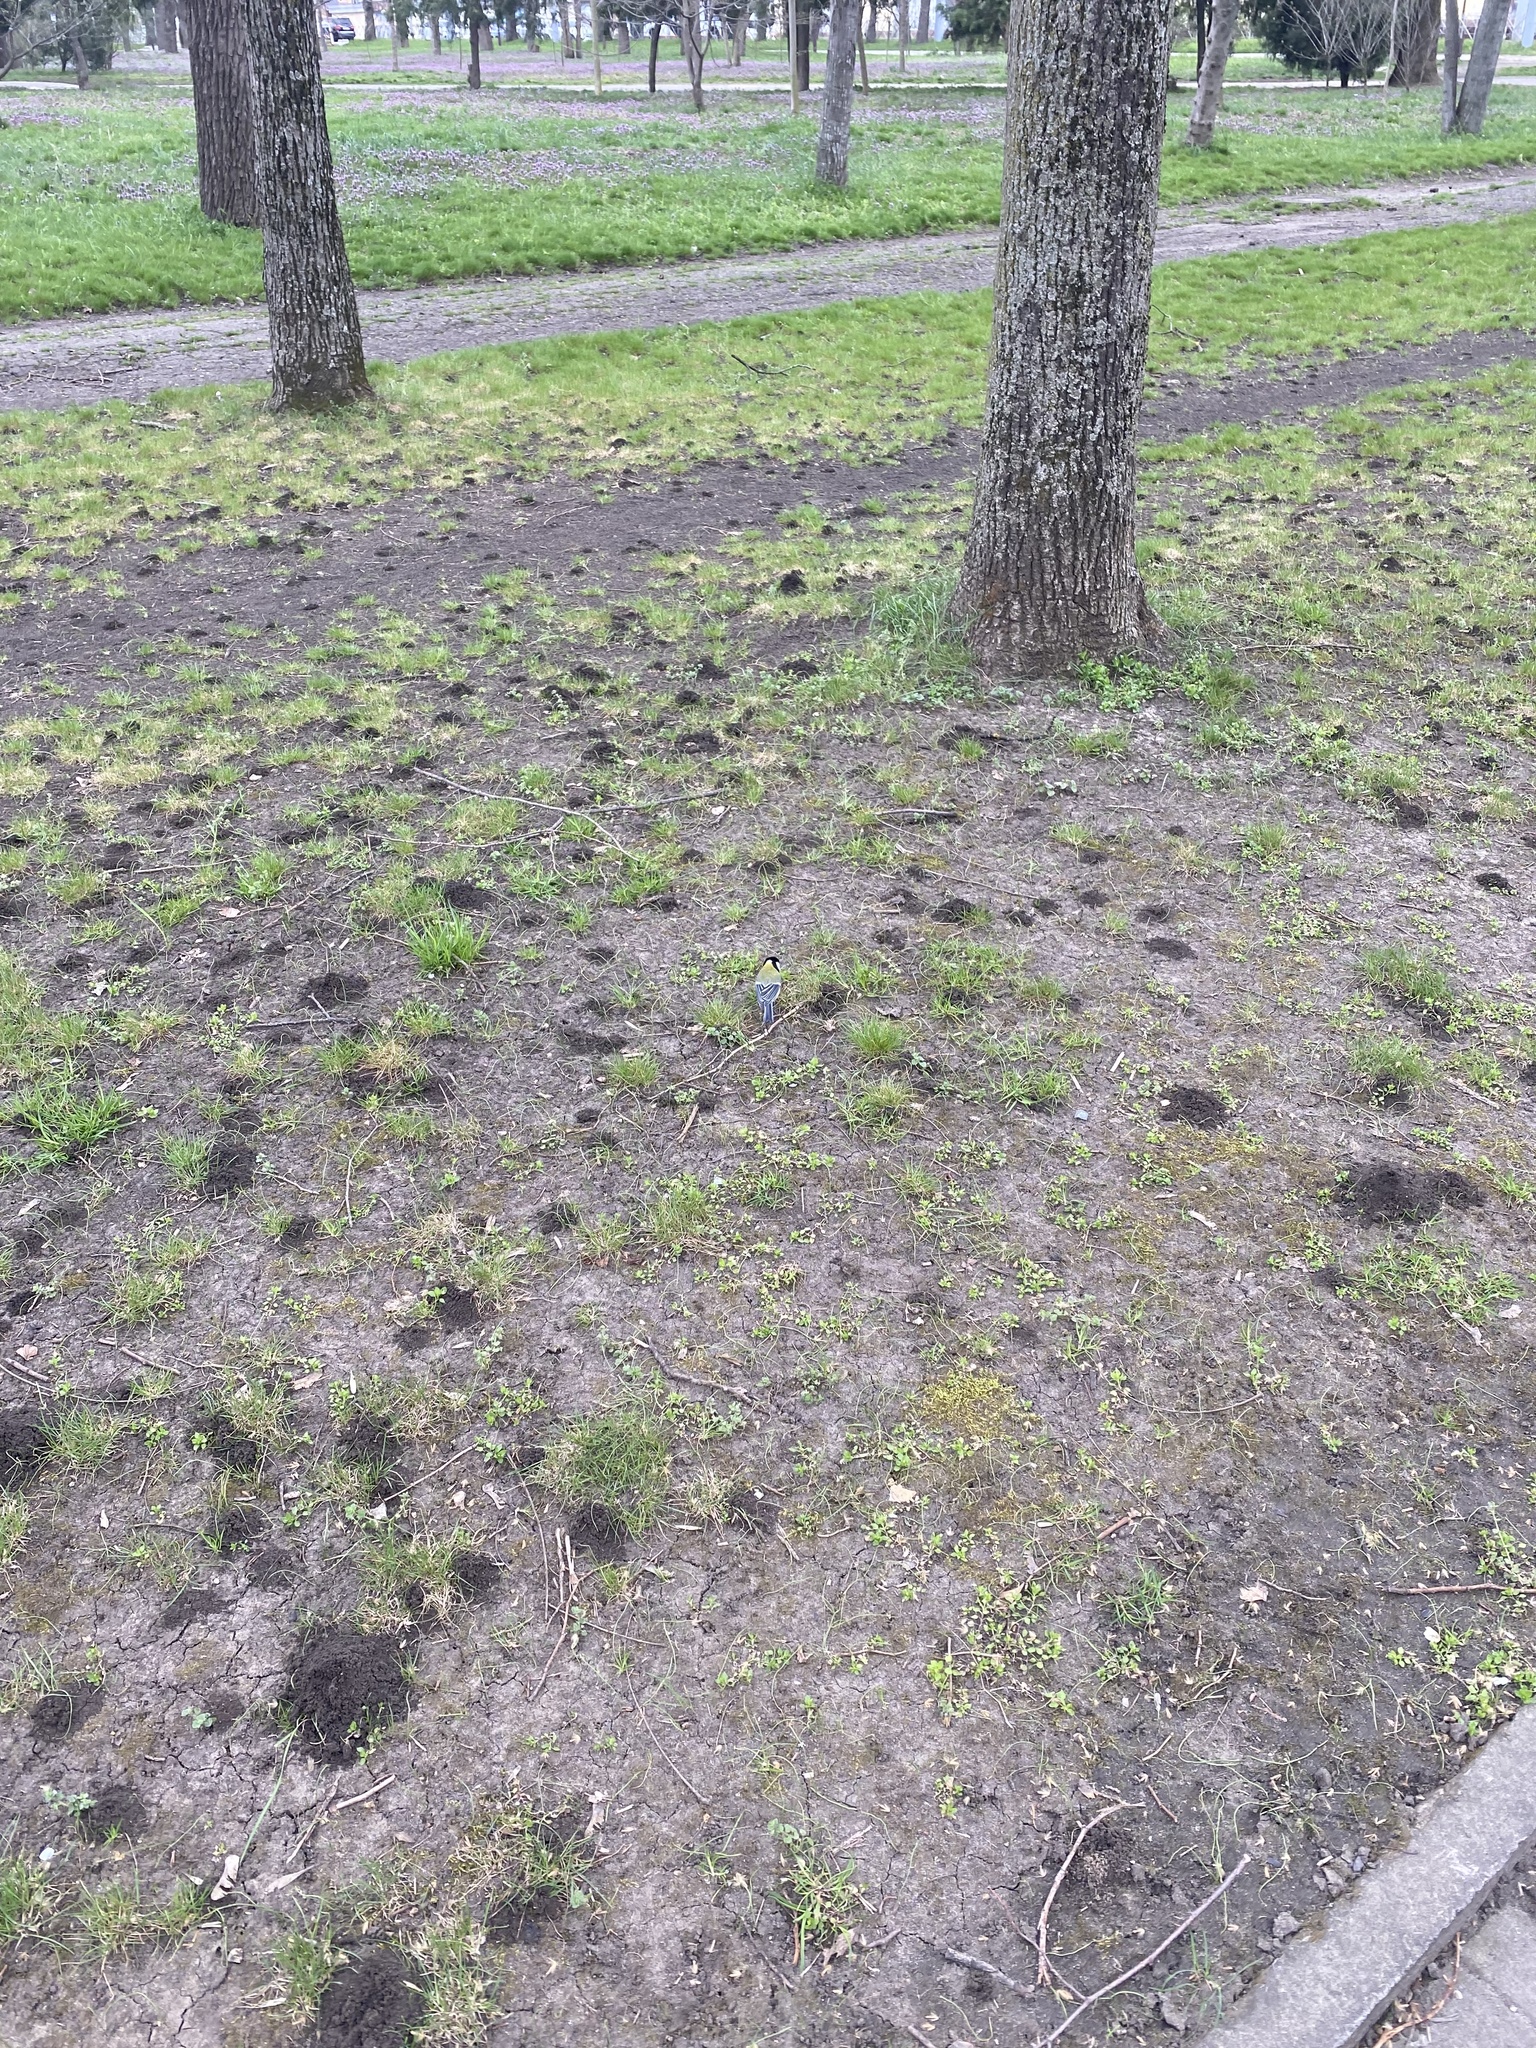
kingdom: Animalia
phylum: Chordata
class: Aves
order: Passeriformes
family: Paridae
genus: Parus
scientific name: Parus major
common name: Great tit
